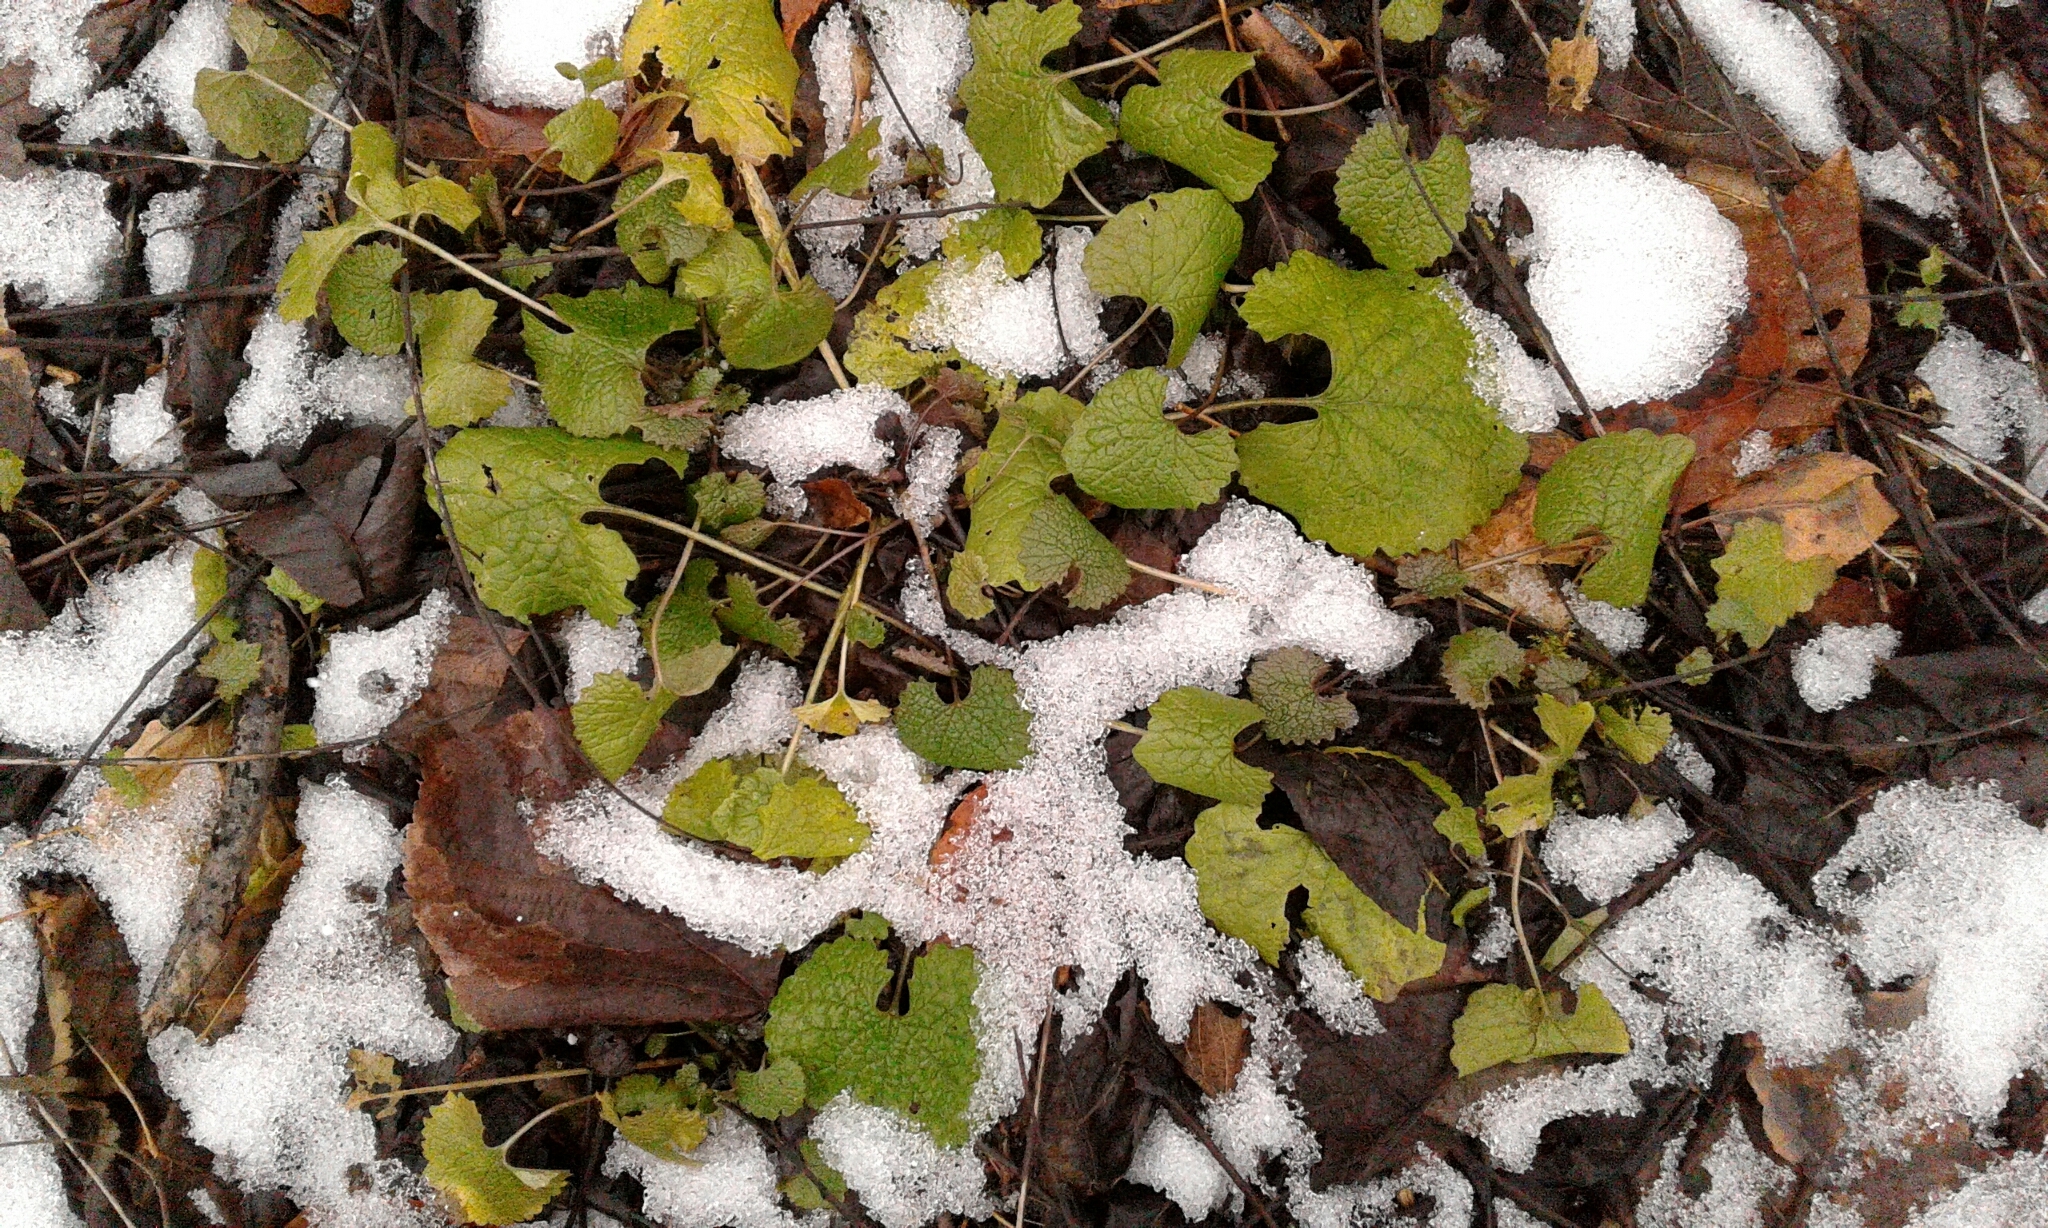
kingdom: Plantae
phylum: Tracheophyta
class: Magnoliopsida
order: Brassicales
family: Brassicaceae
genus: Alliaria
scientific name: Alliaria petiolata
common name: Garlic mustard
